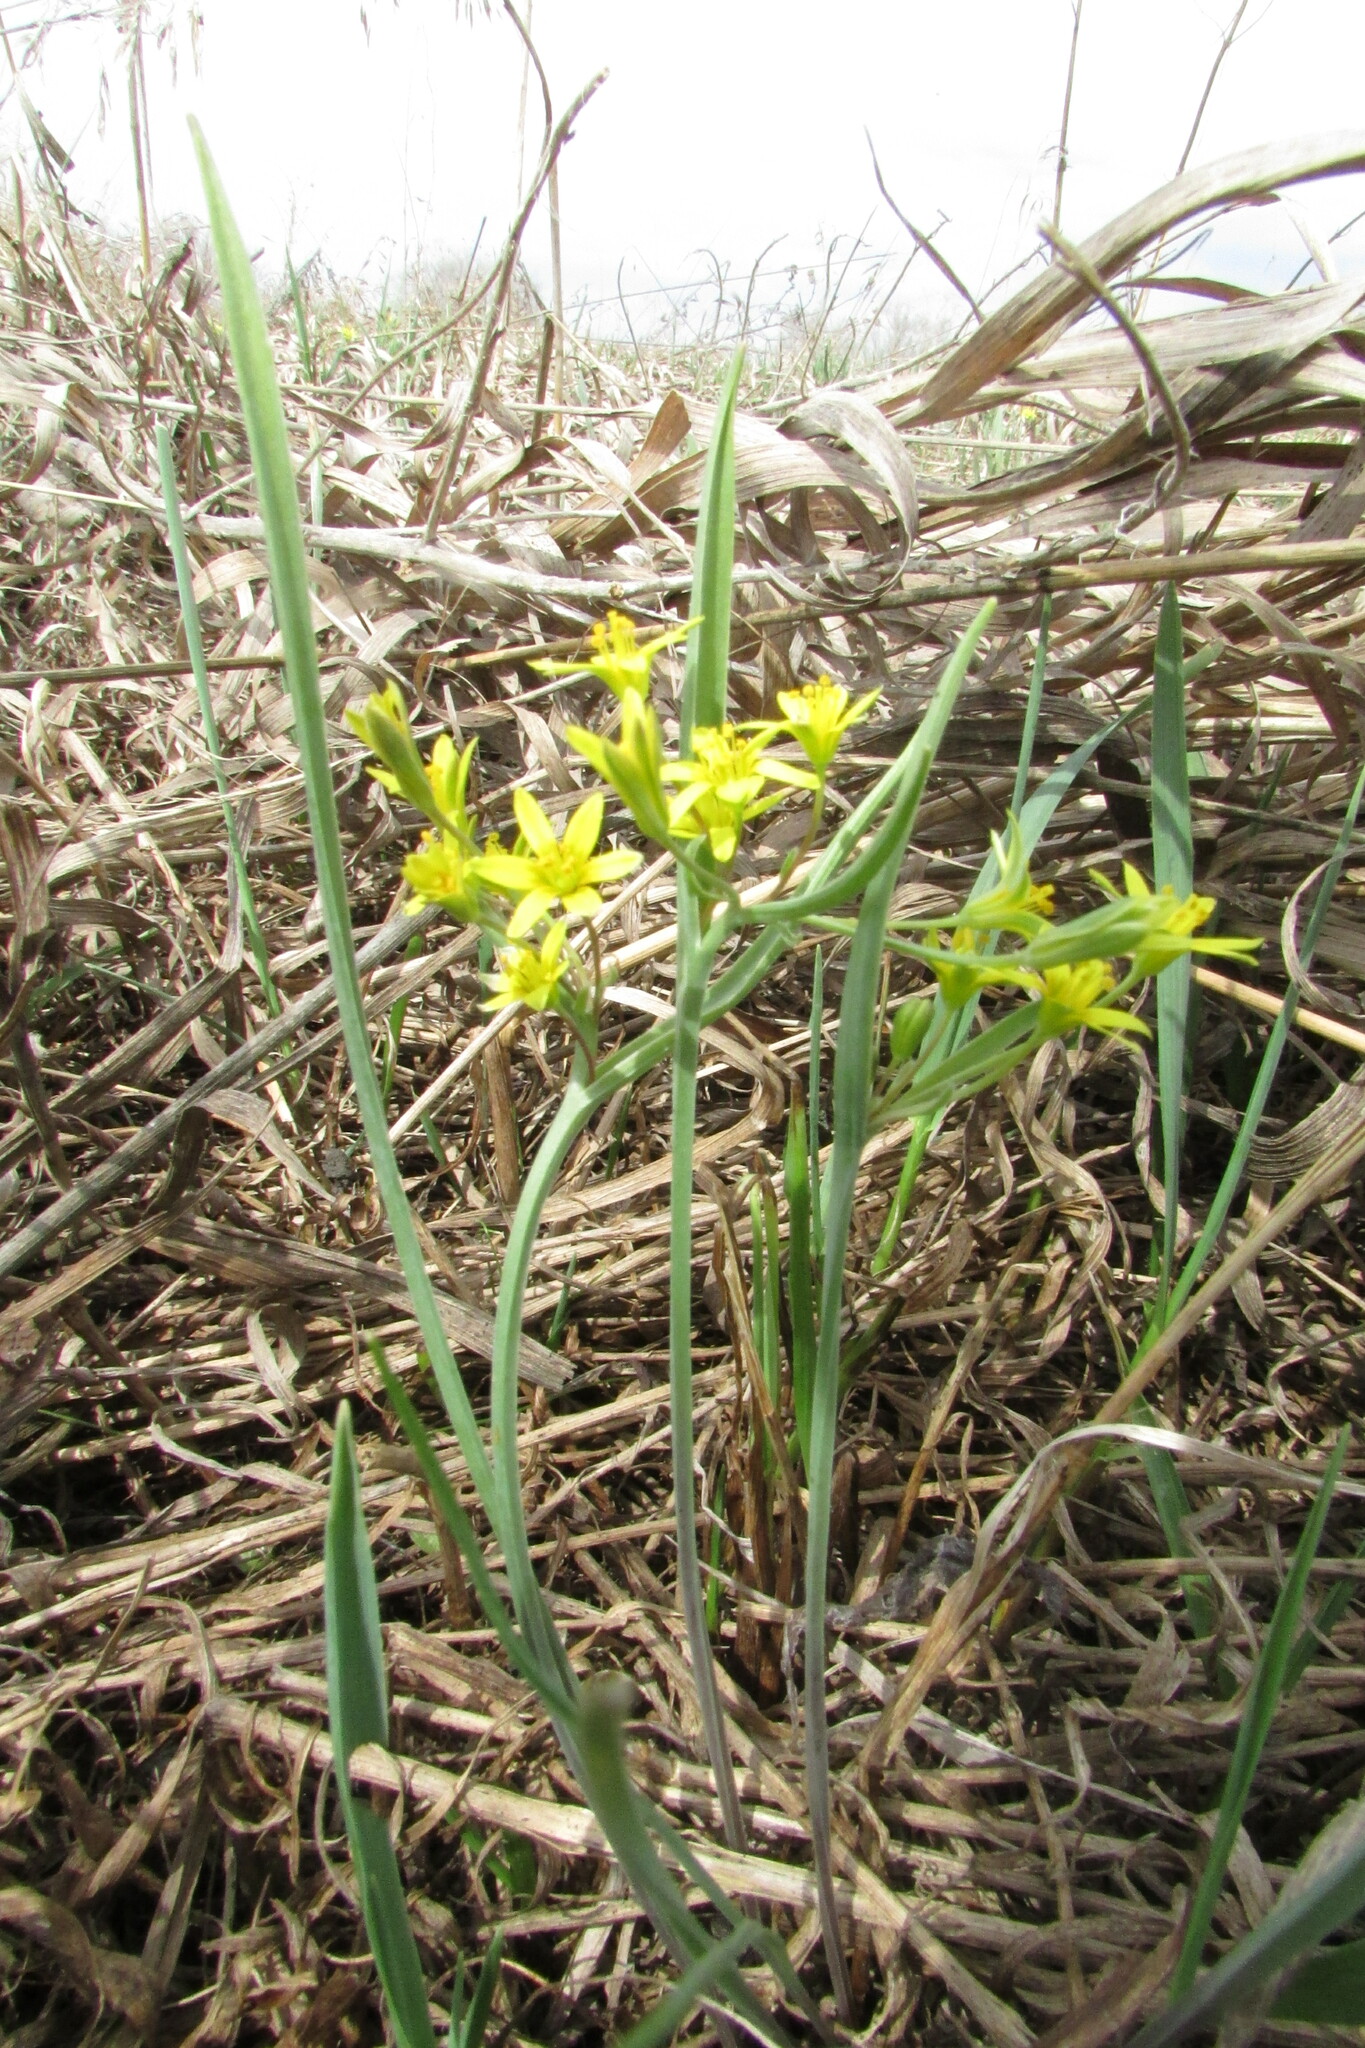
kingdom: Plantae
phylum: Tracheophyta
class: Liliopsida
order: Liliales
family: Liliaceae
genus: Gagea
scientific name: Gagea fragifera
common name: Lily
